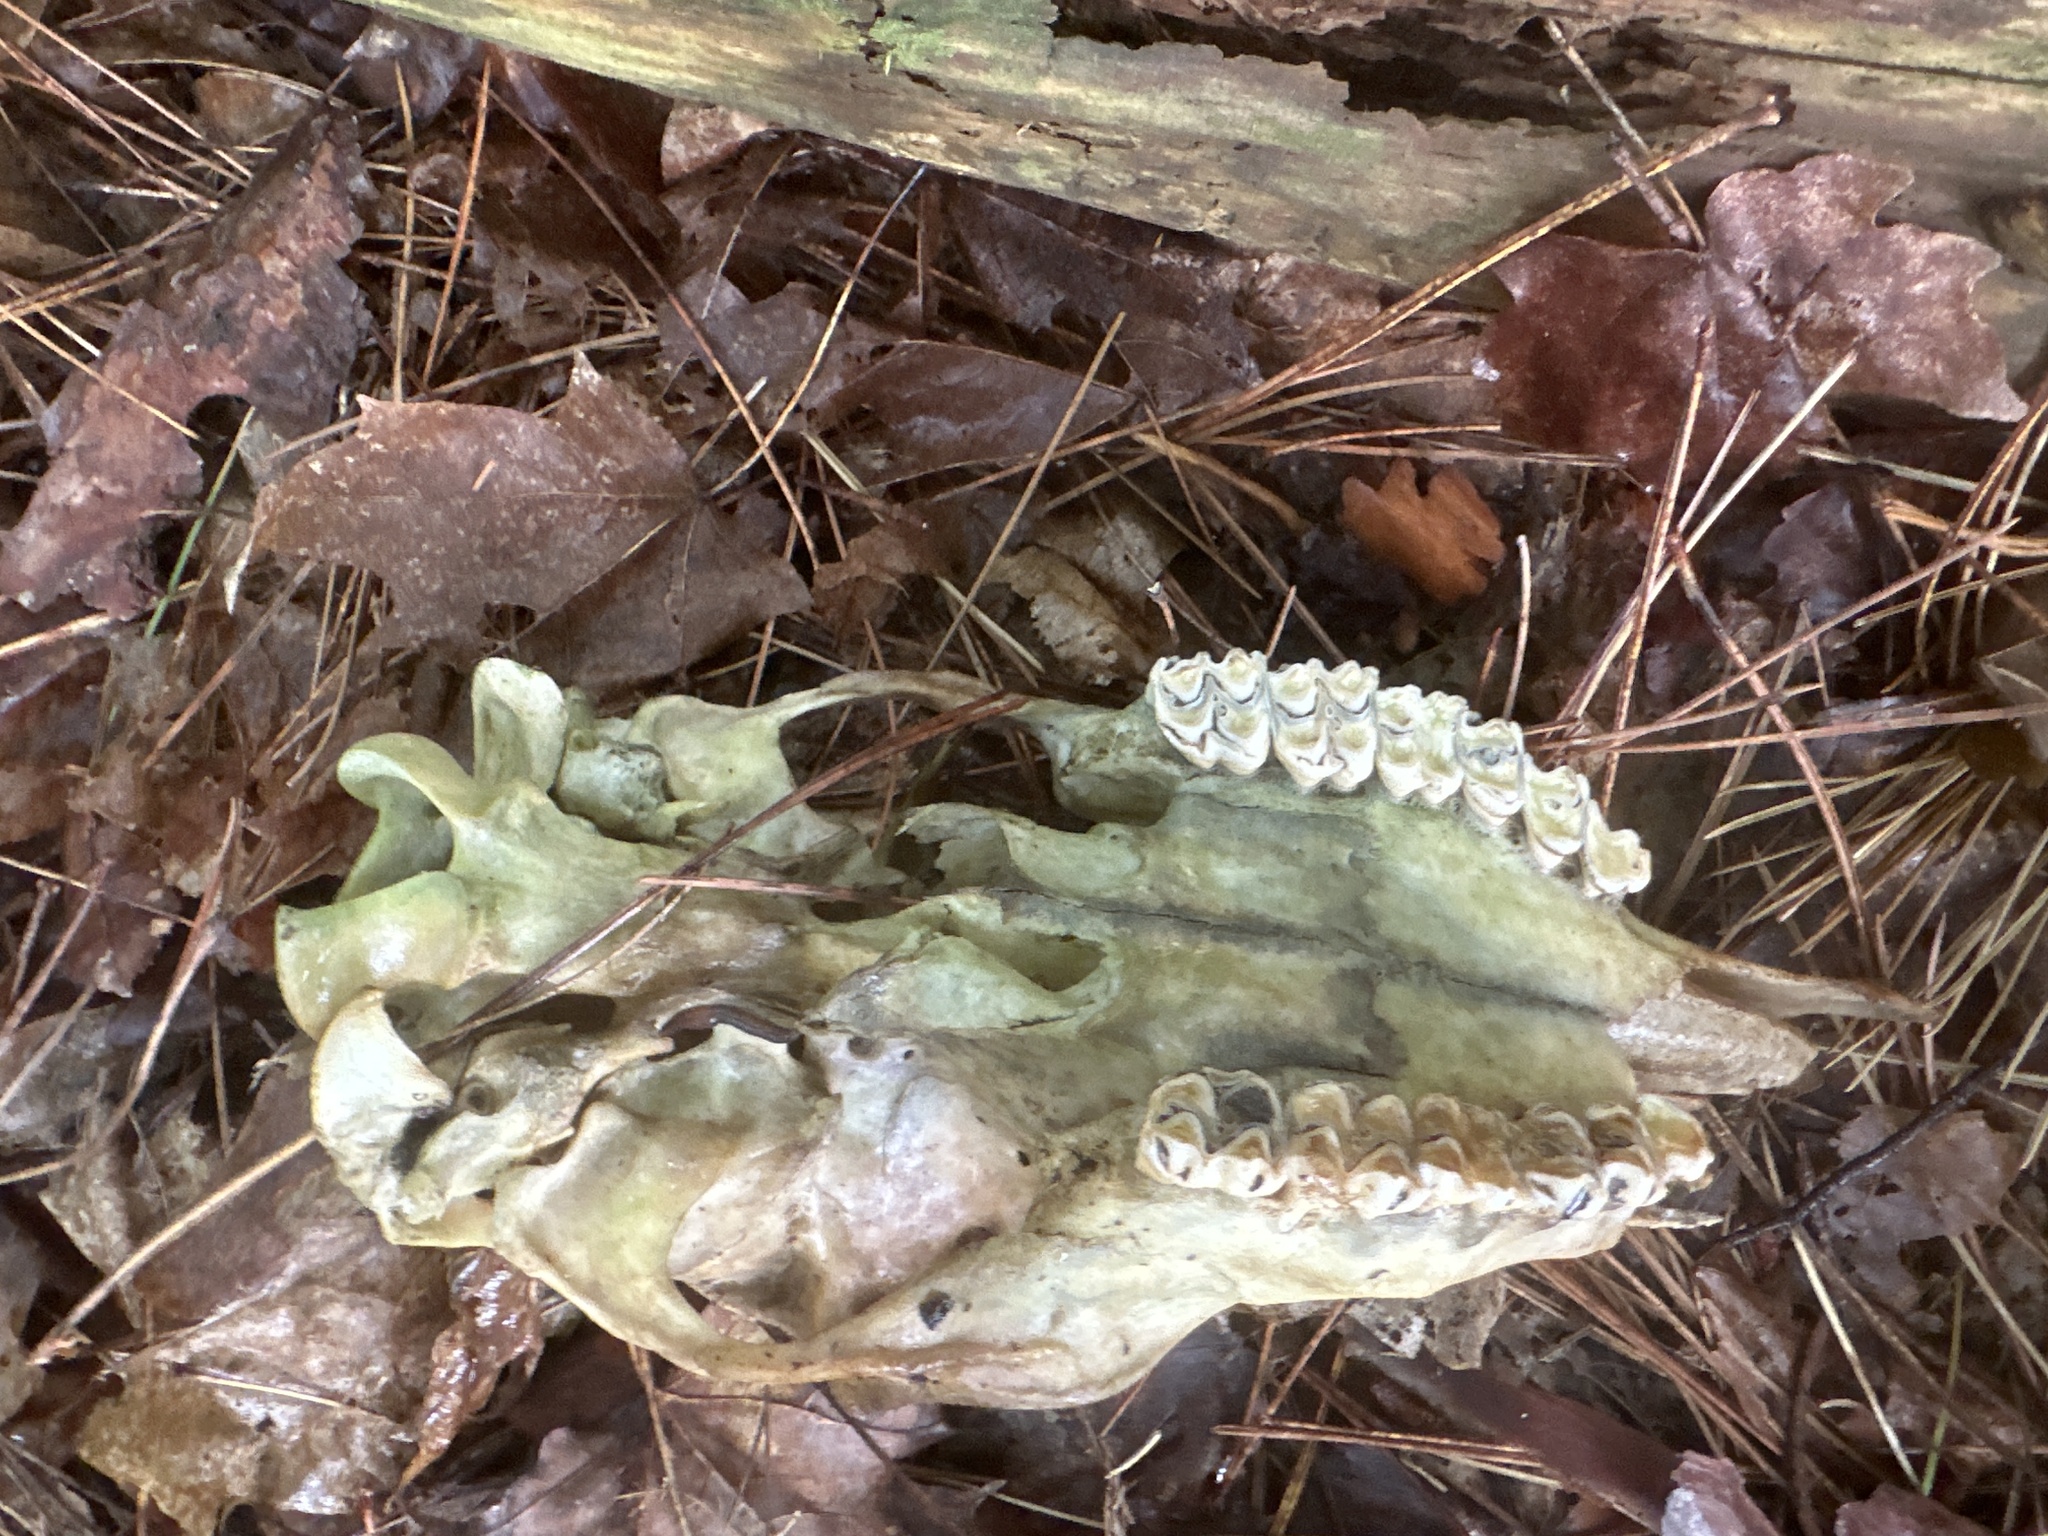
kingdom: Animalia
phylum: Chordata
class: Mammalia
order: Artiodactyla
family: Cervidae
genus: Odocoileus
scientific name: Odocoileus virginianus
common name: White-tailed deer
